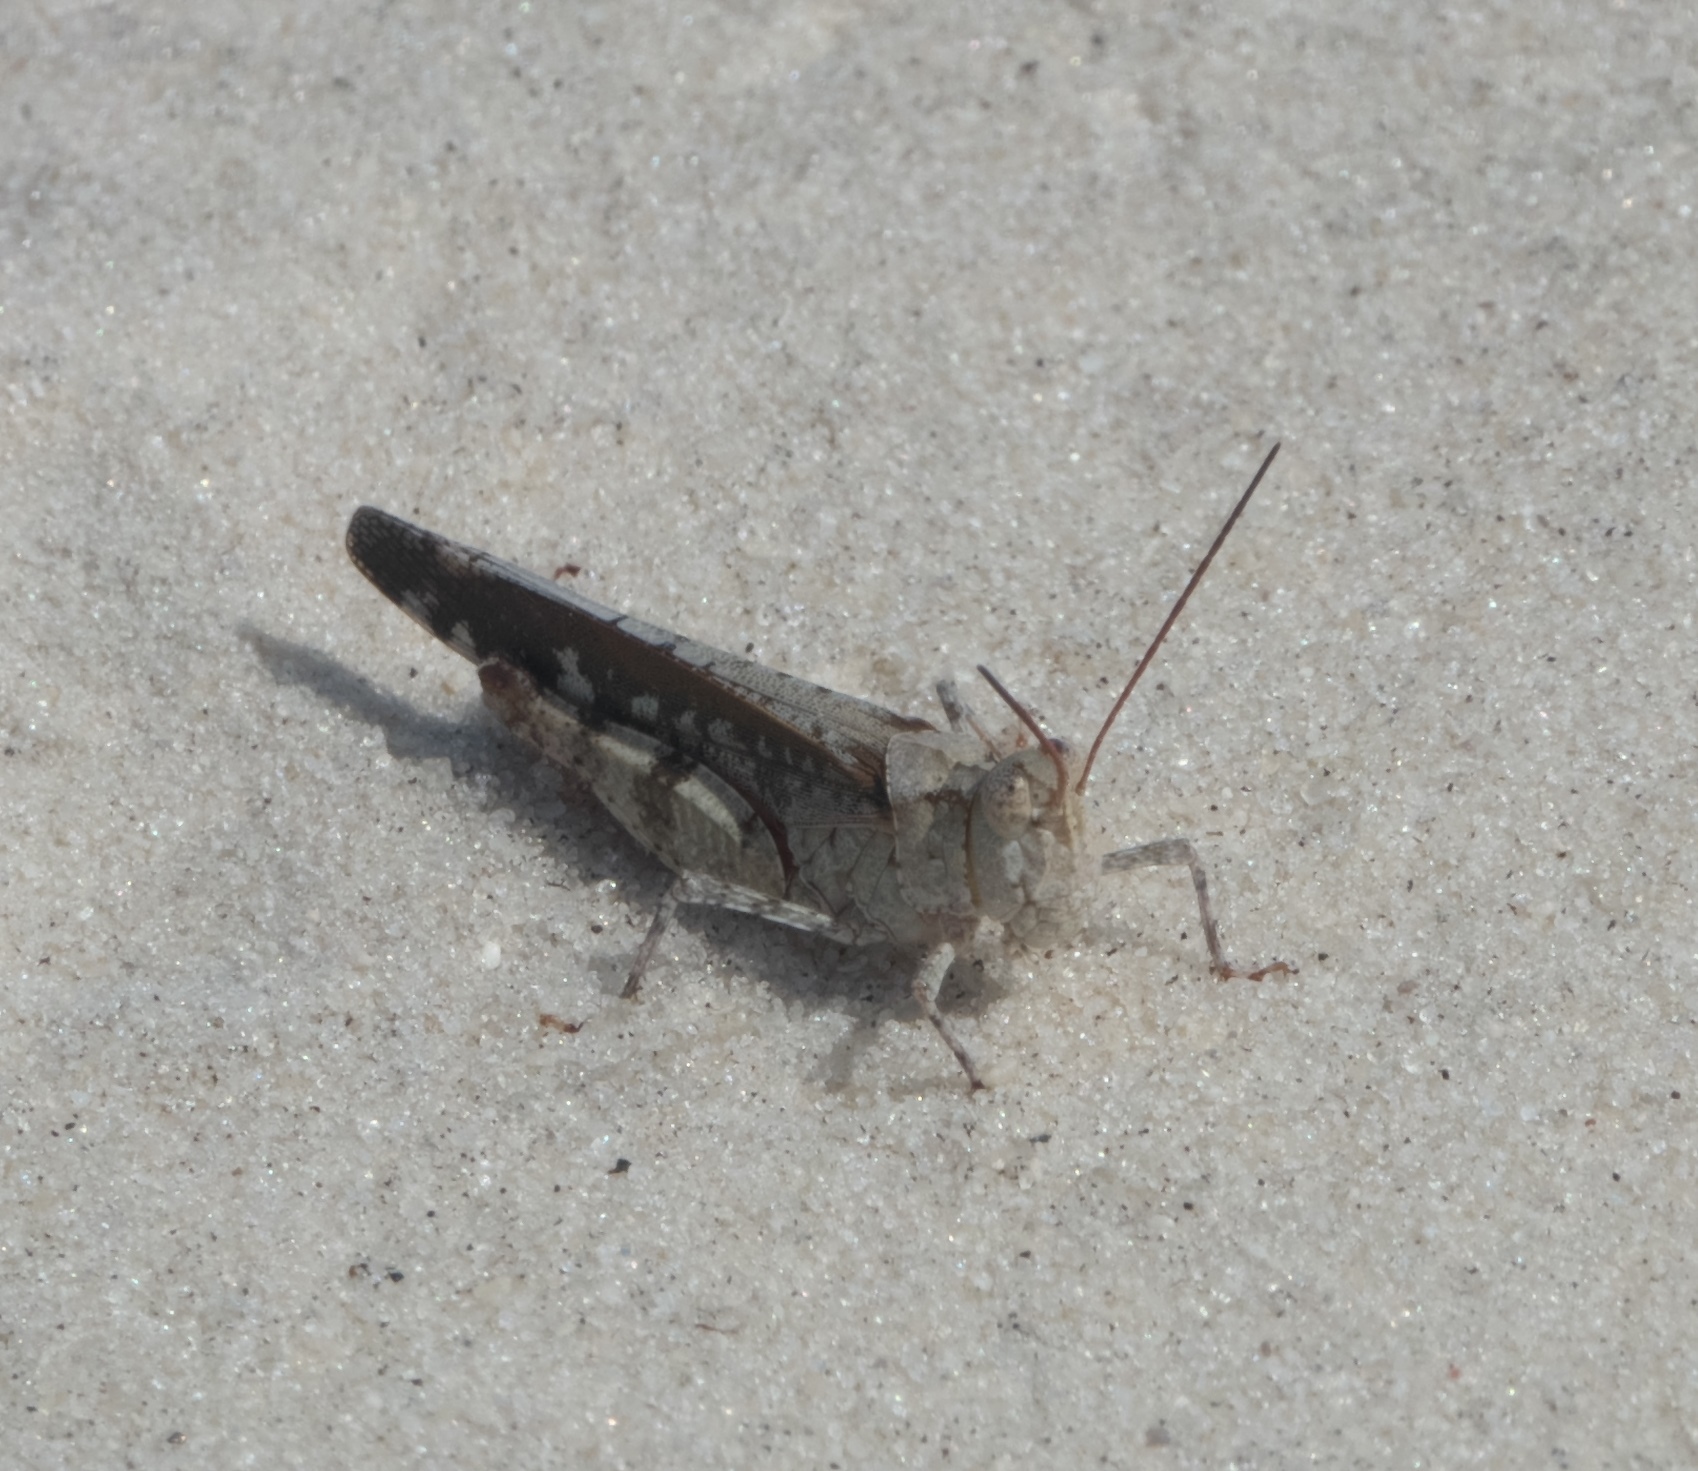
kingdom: Animalia
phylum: Arthropoda
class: Insecta
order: Orthoptera
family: Acrididae
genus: Spharagemon
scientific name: Spharagemon marmoratum
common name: Marbled grasshopper
